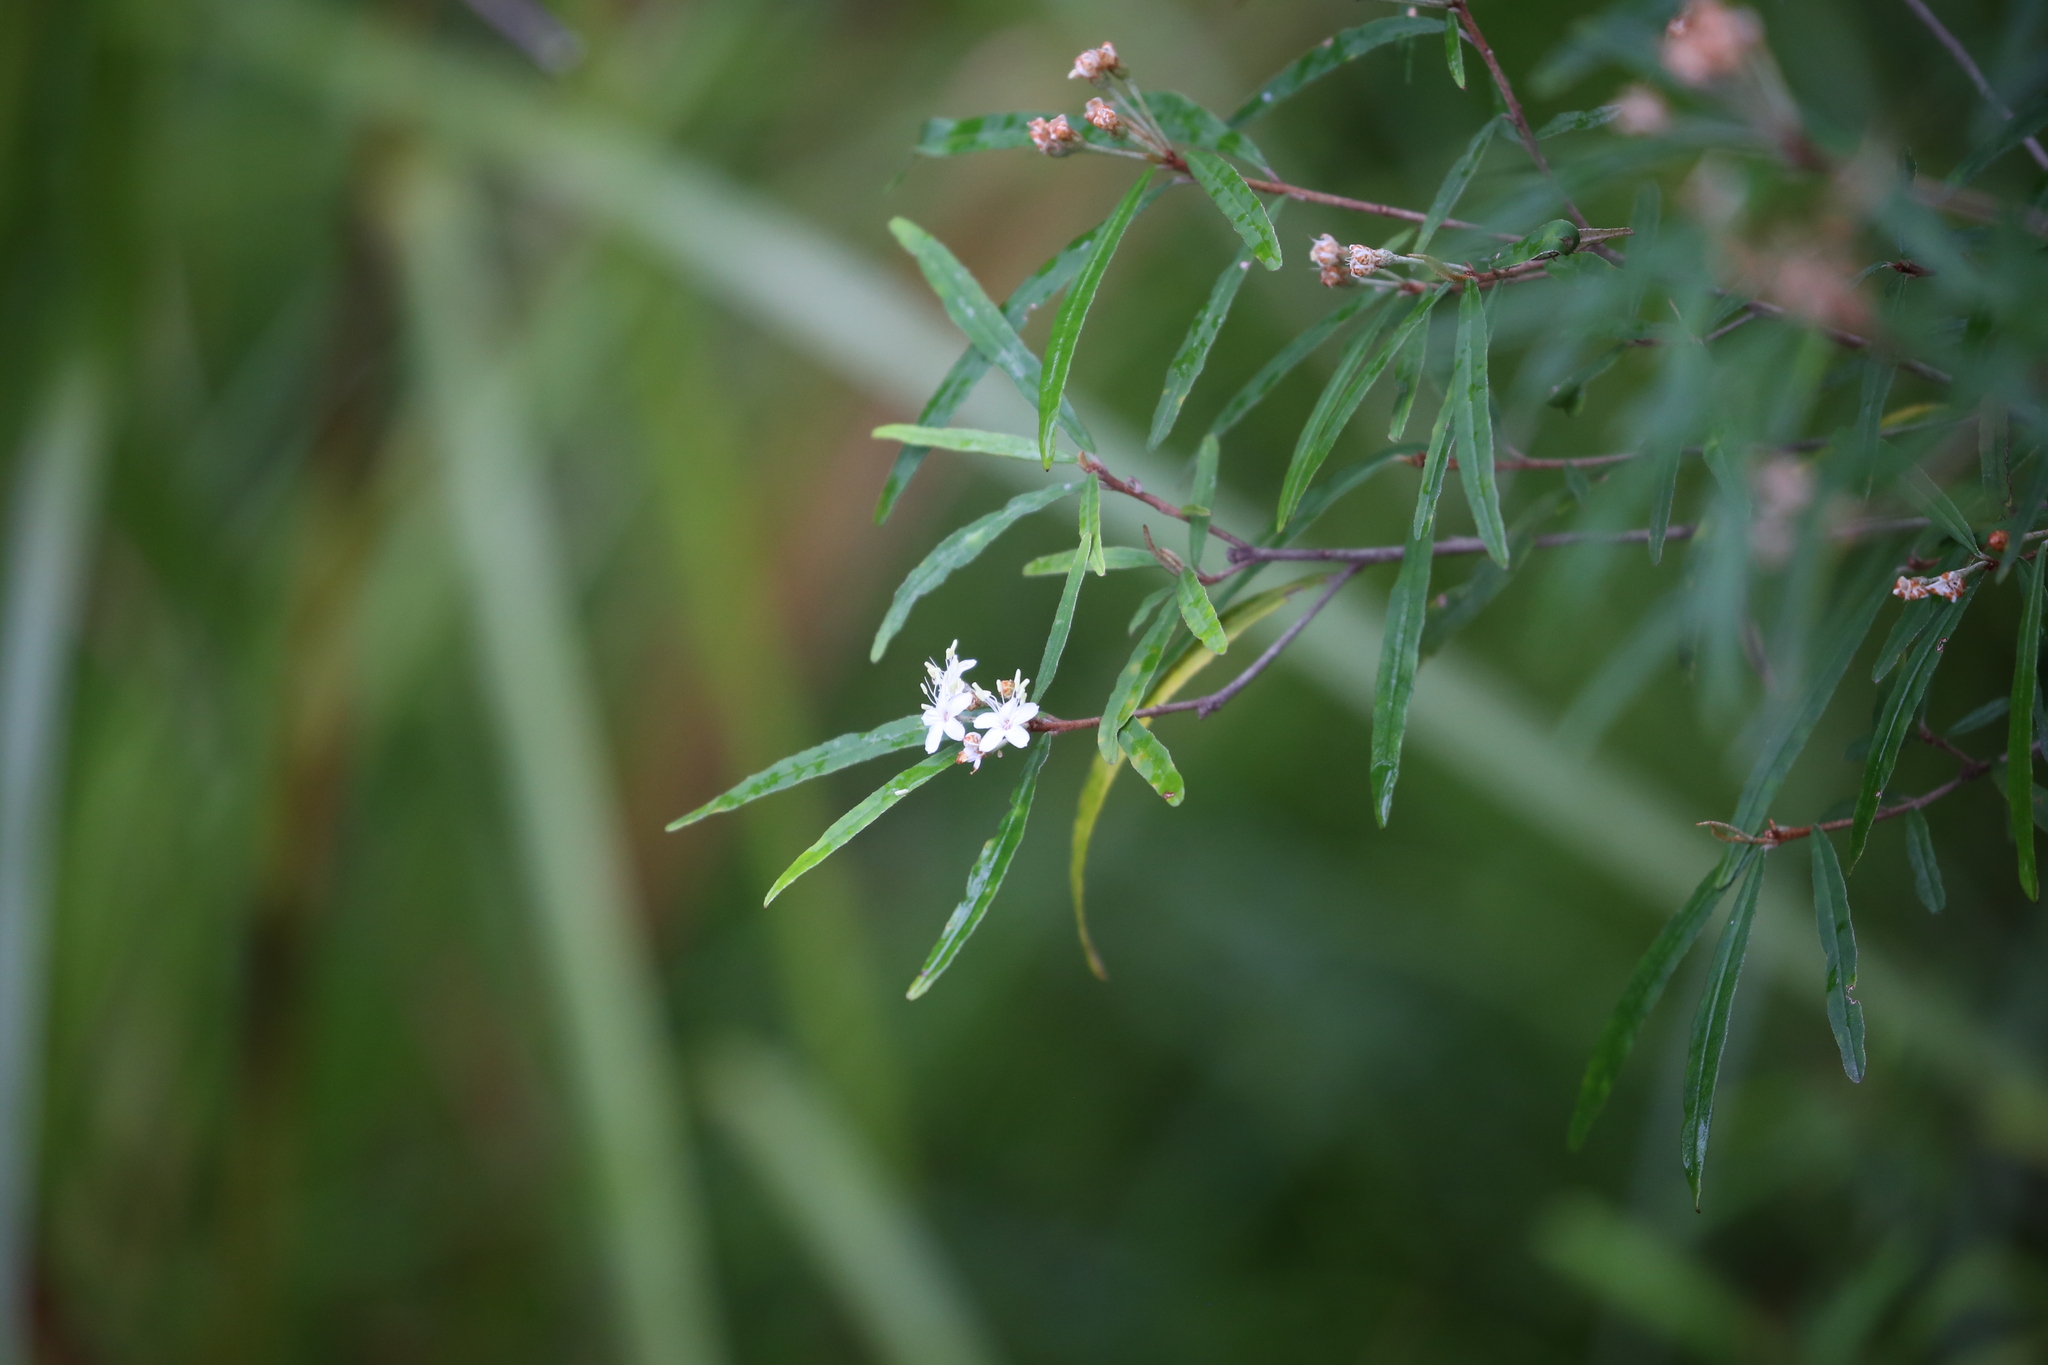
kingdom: Plantae
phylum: Tracheophyta
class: Magnoliopsida
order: Sapindales
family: Rutaceae
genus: Phebalium
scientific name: Phebalium woombye
